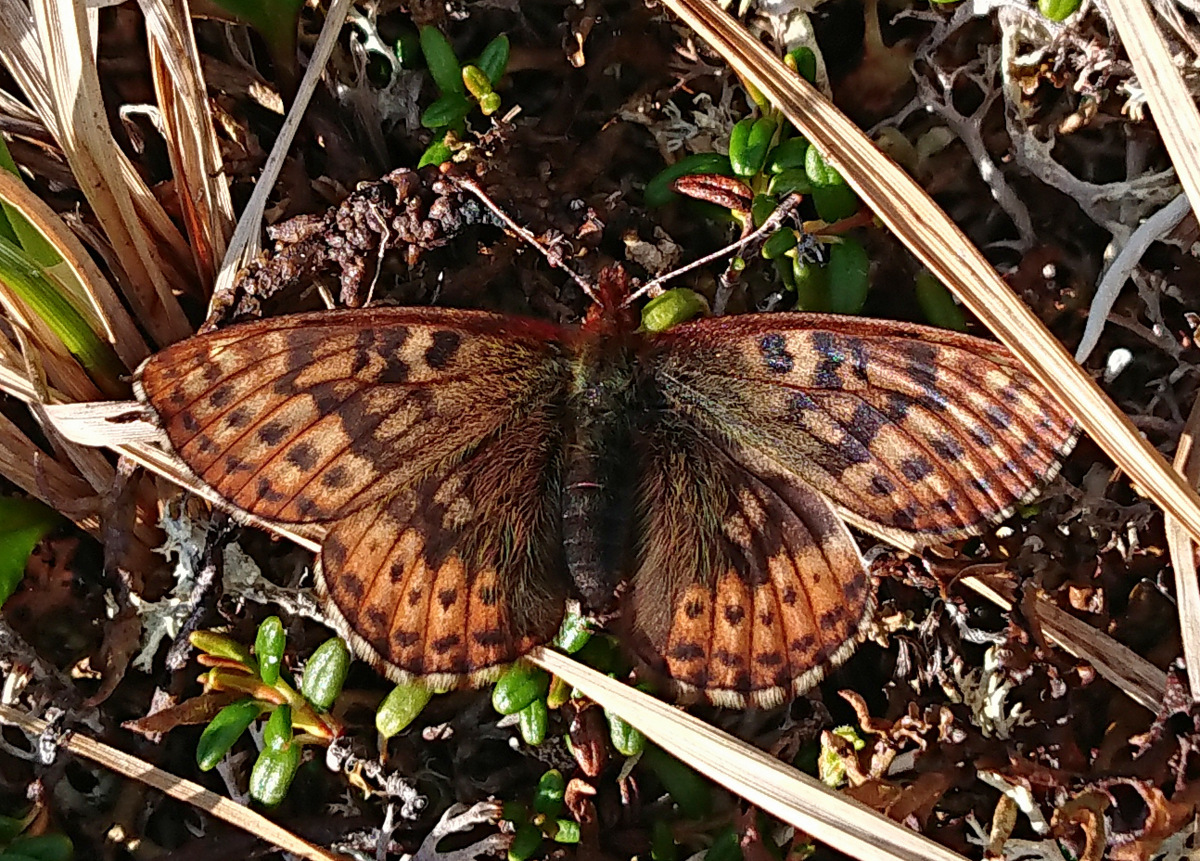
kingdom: Animalia
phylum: Arthropoda
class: Insecta
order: Lepidoptera
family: Nymphalidae
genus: Clossiana
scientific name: Clossiana improba
